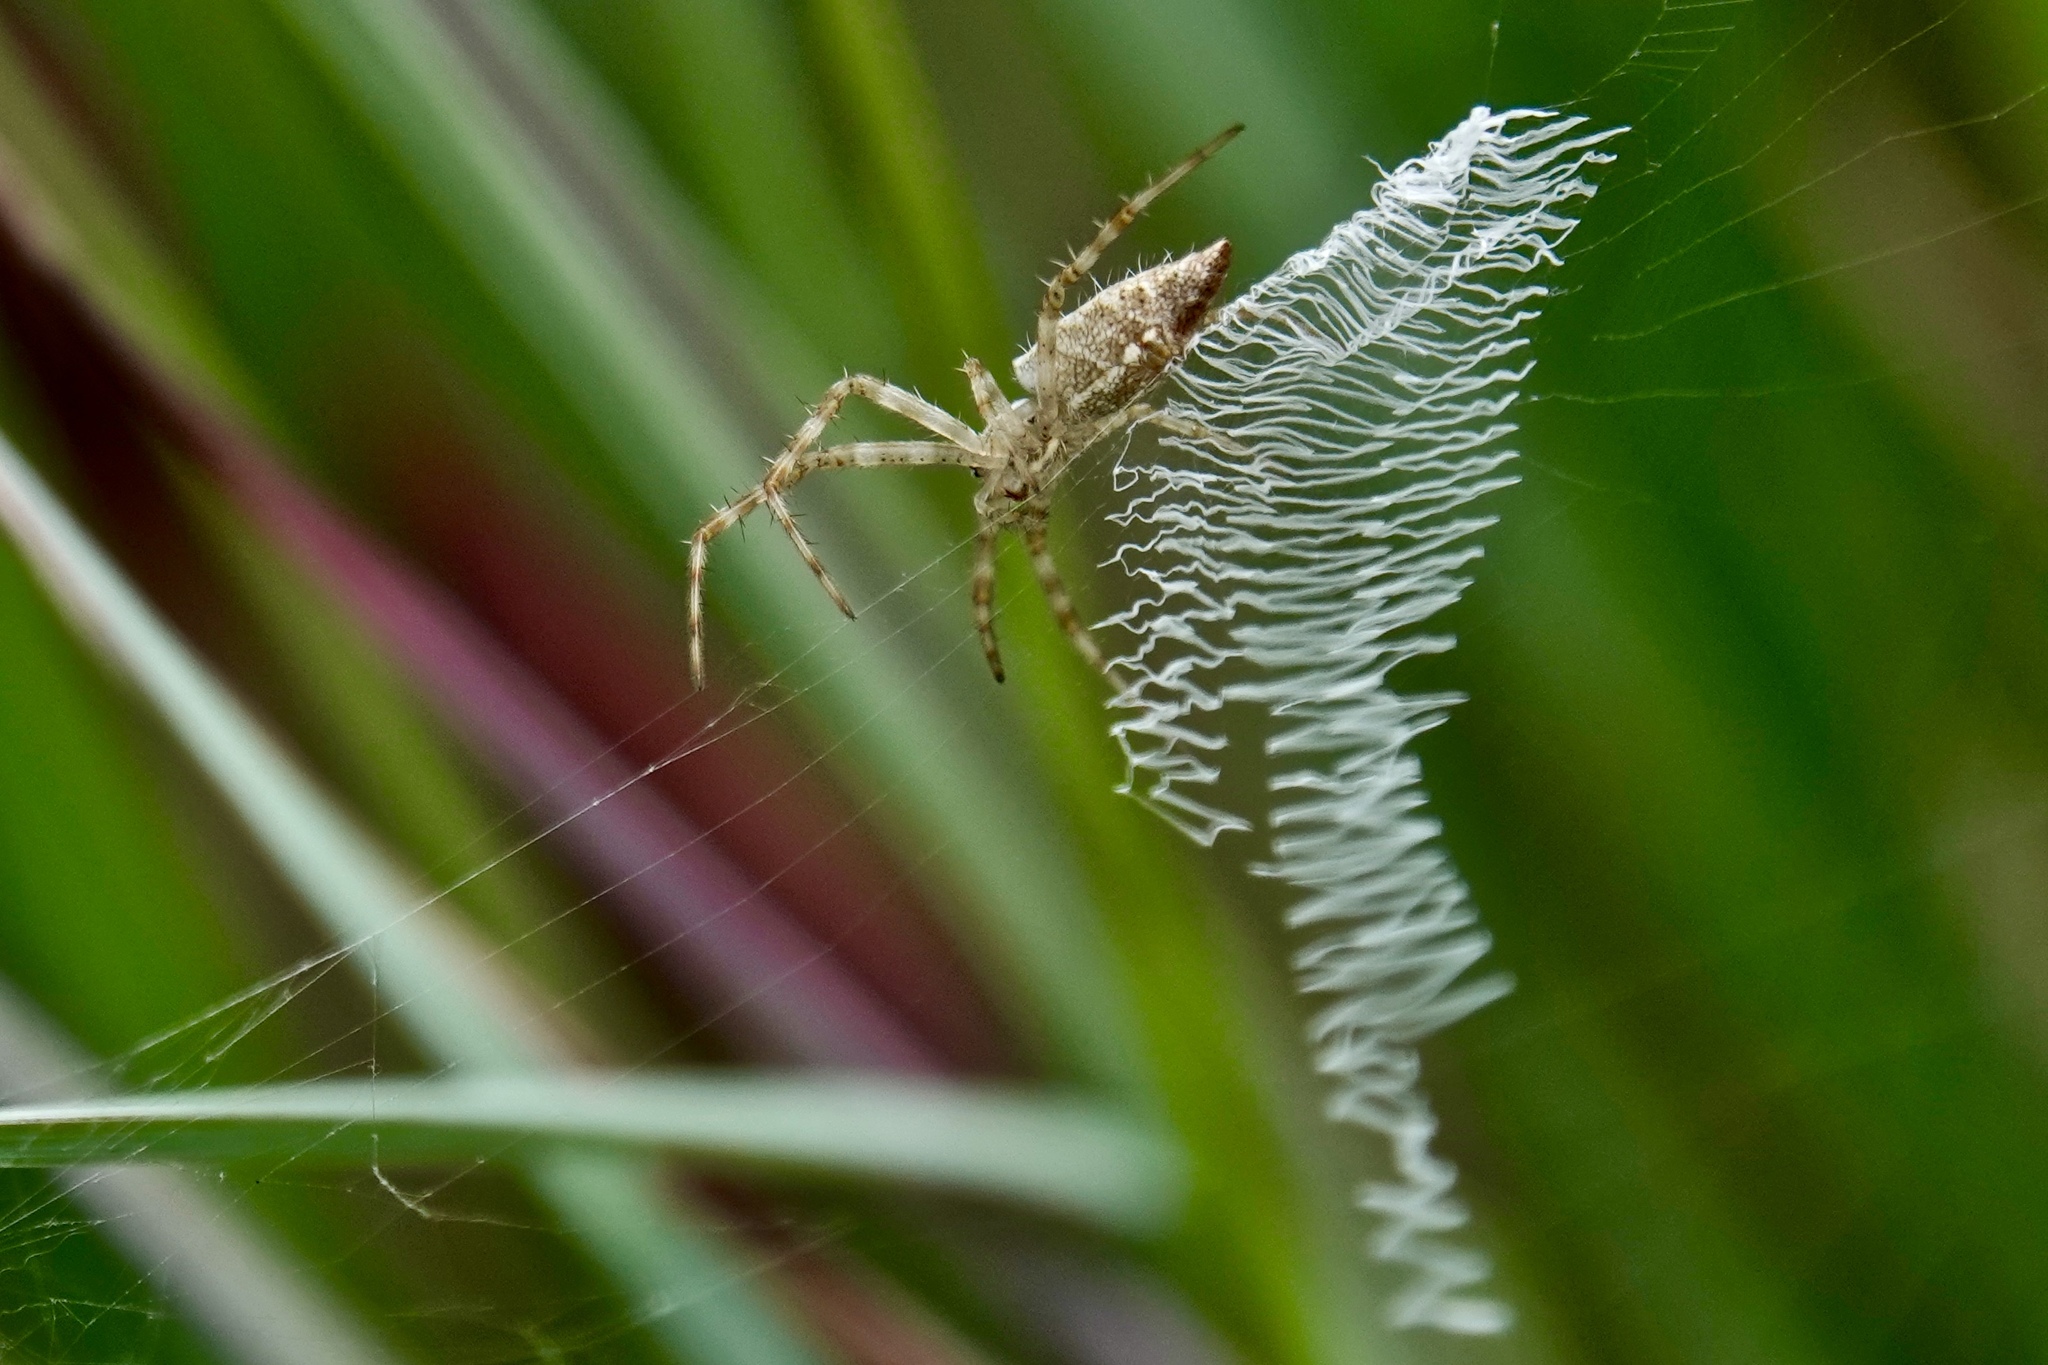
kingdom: Animalia
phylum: Arthropoda
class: Arachnida
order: Araneae
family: Araneidae
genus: Argiope
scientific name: Argiope aurantia
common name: Orb weavers
